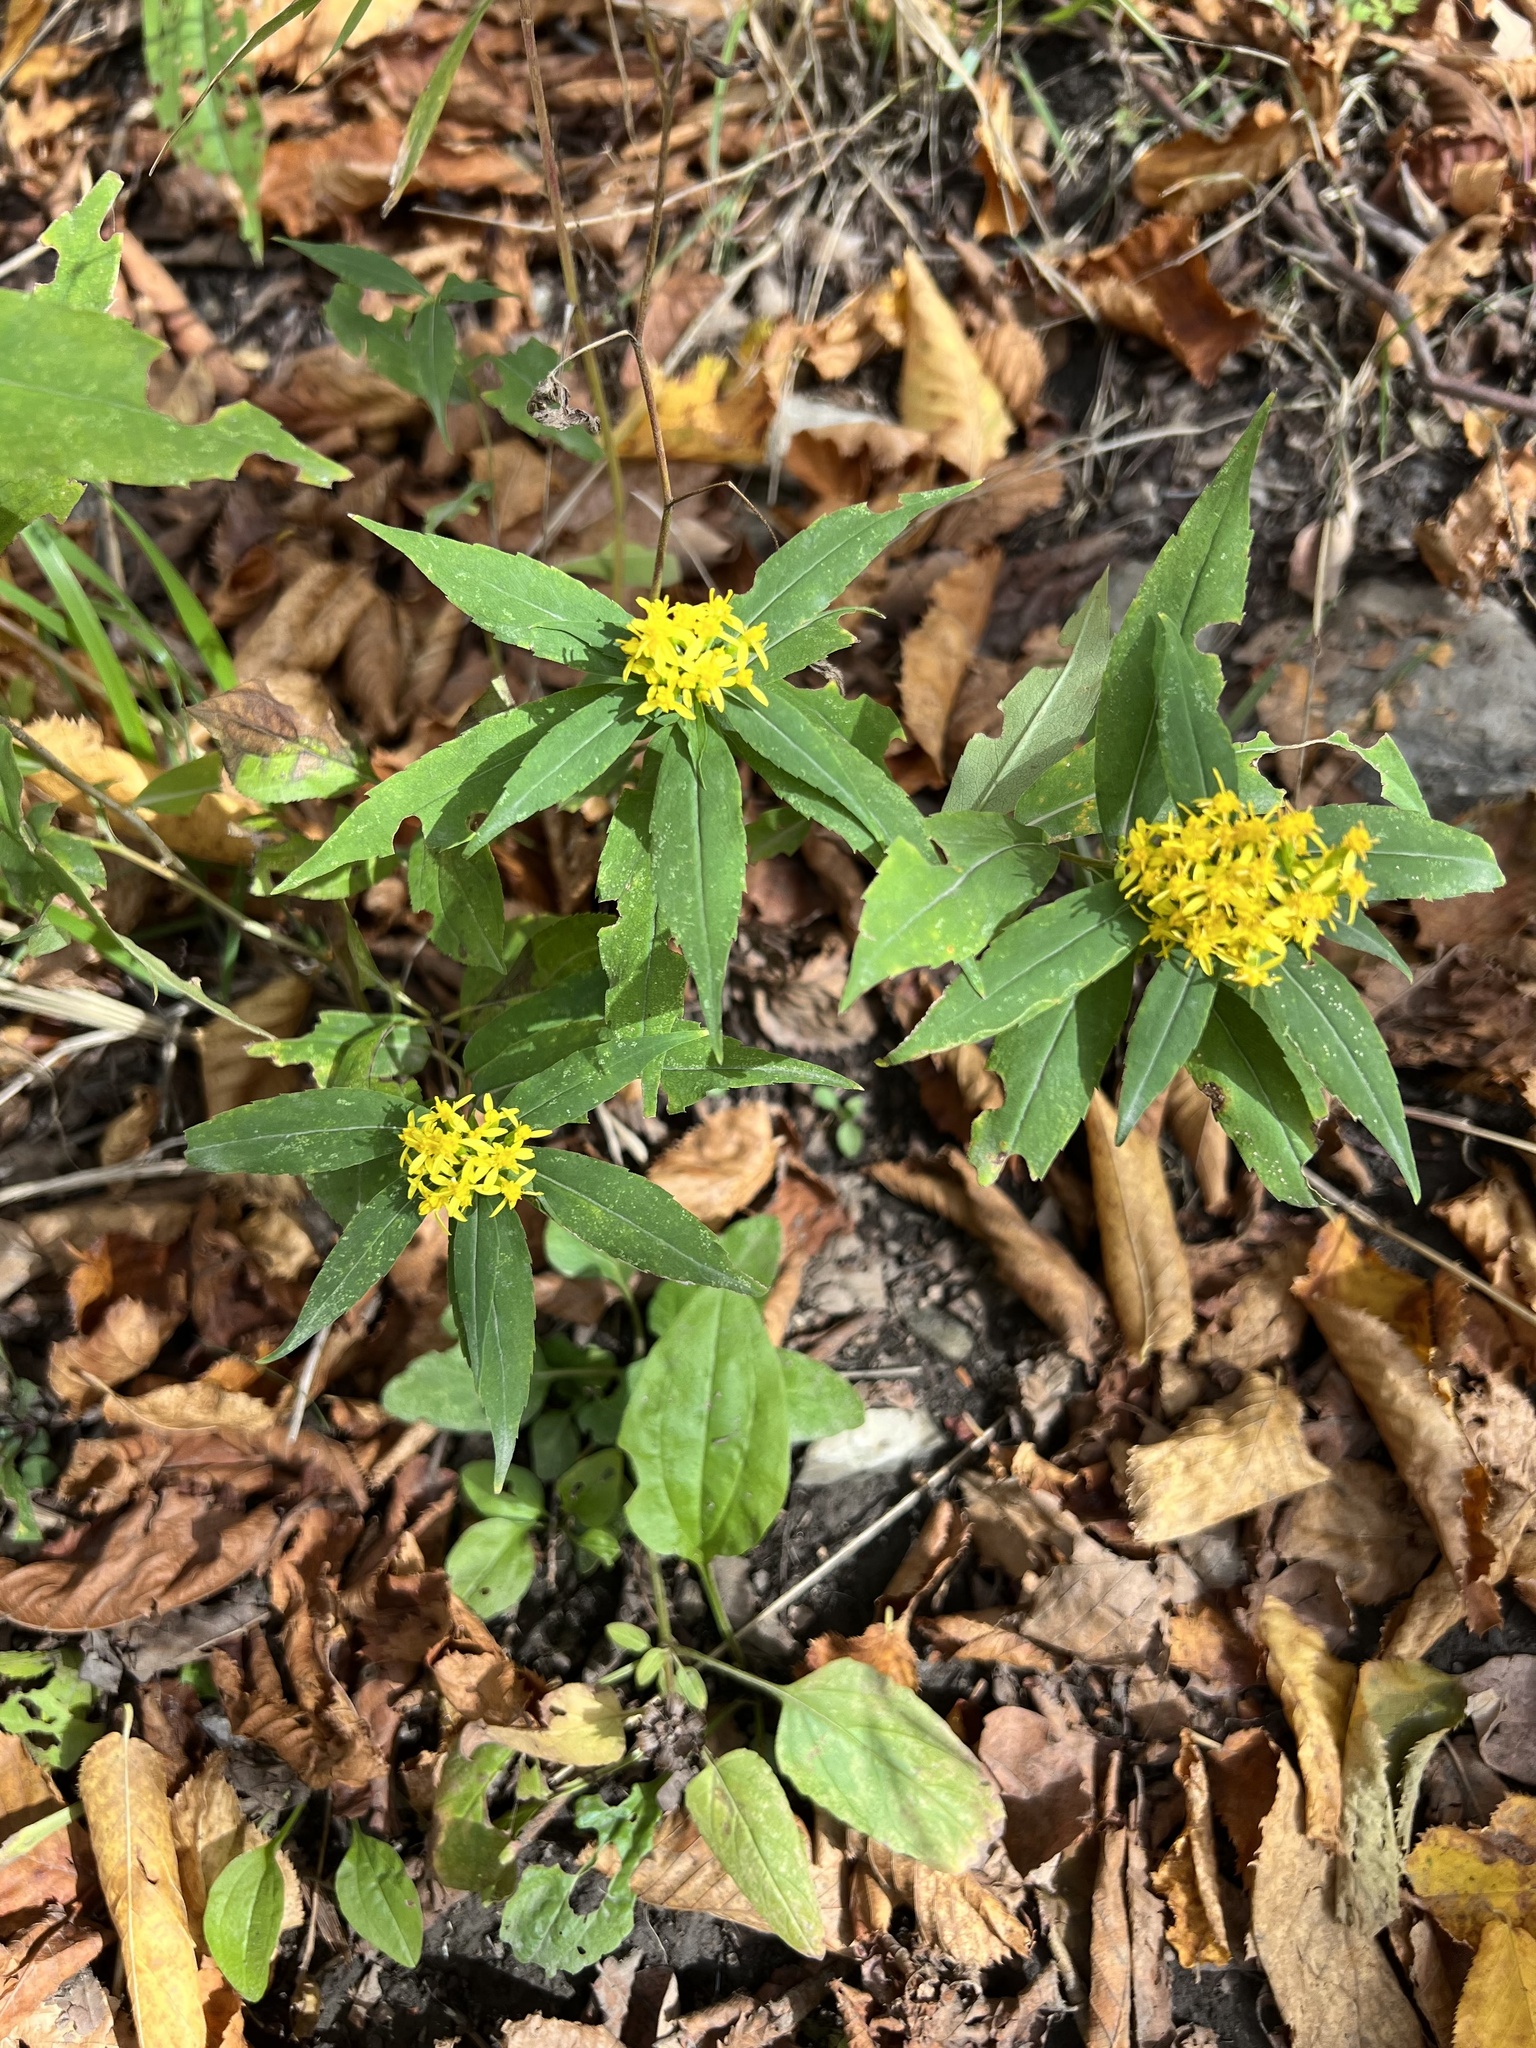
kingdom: Plantae
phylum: Tracheophyta
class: Magnoliopsida
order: Asterales
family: Asteraceae
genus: Solidago
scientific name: Solidago caesia
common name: Woodland goldenrod
